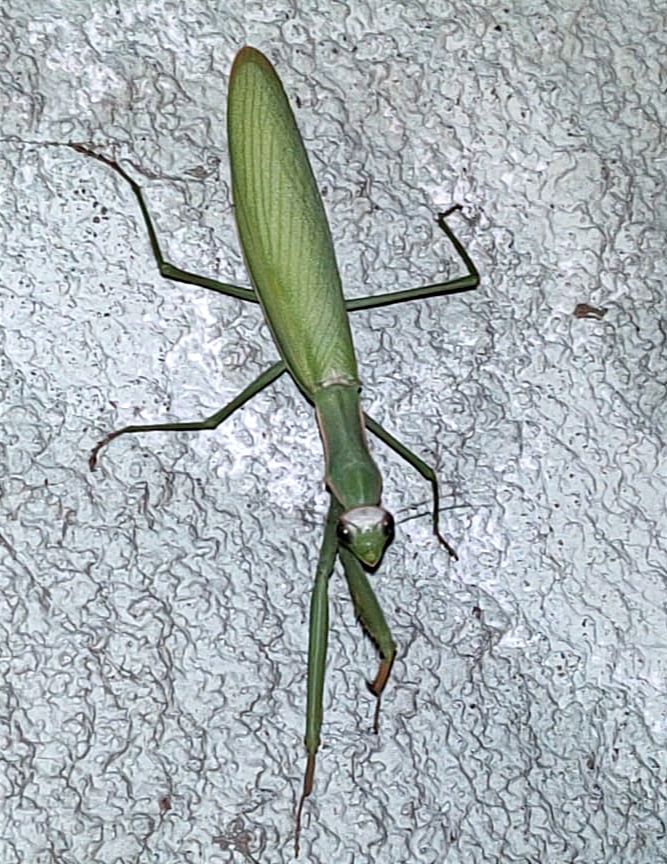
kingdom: Animalia
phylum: Arthropoda
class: Insecta
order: Mantodea
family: Mantidae
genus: Mantis
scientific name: Mantis religiosa
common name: Praying mantis
